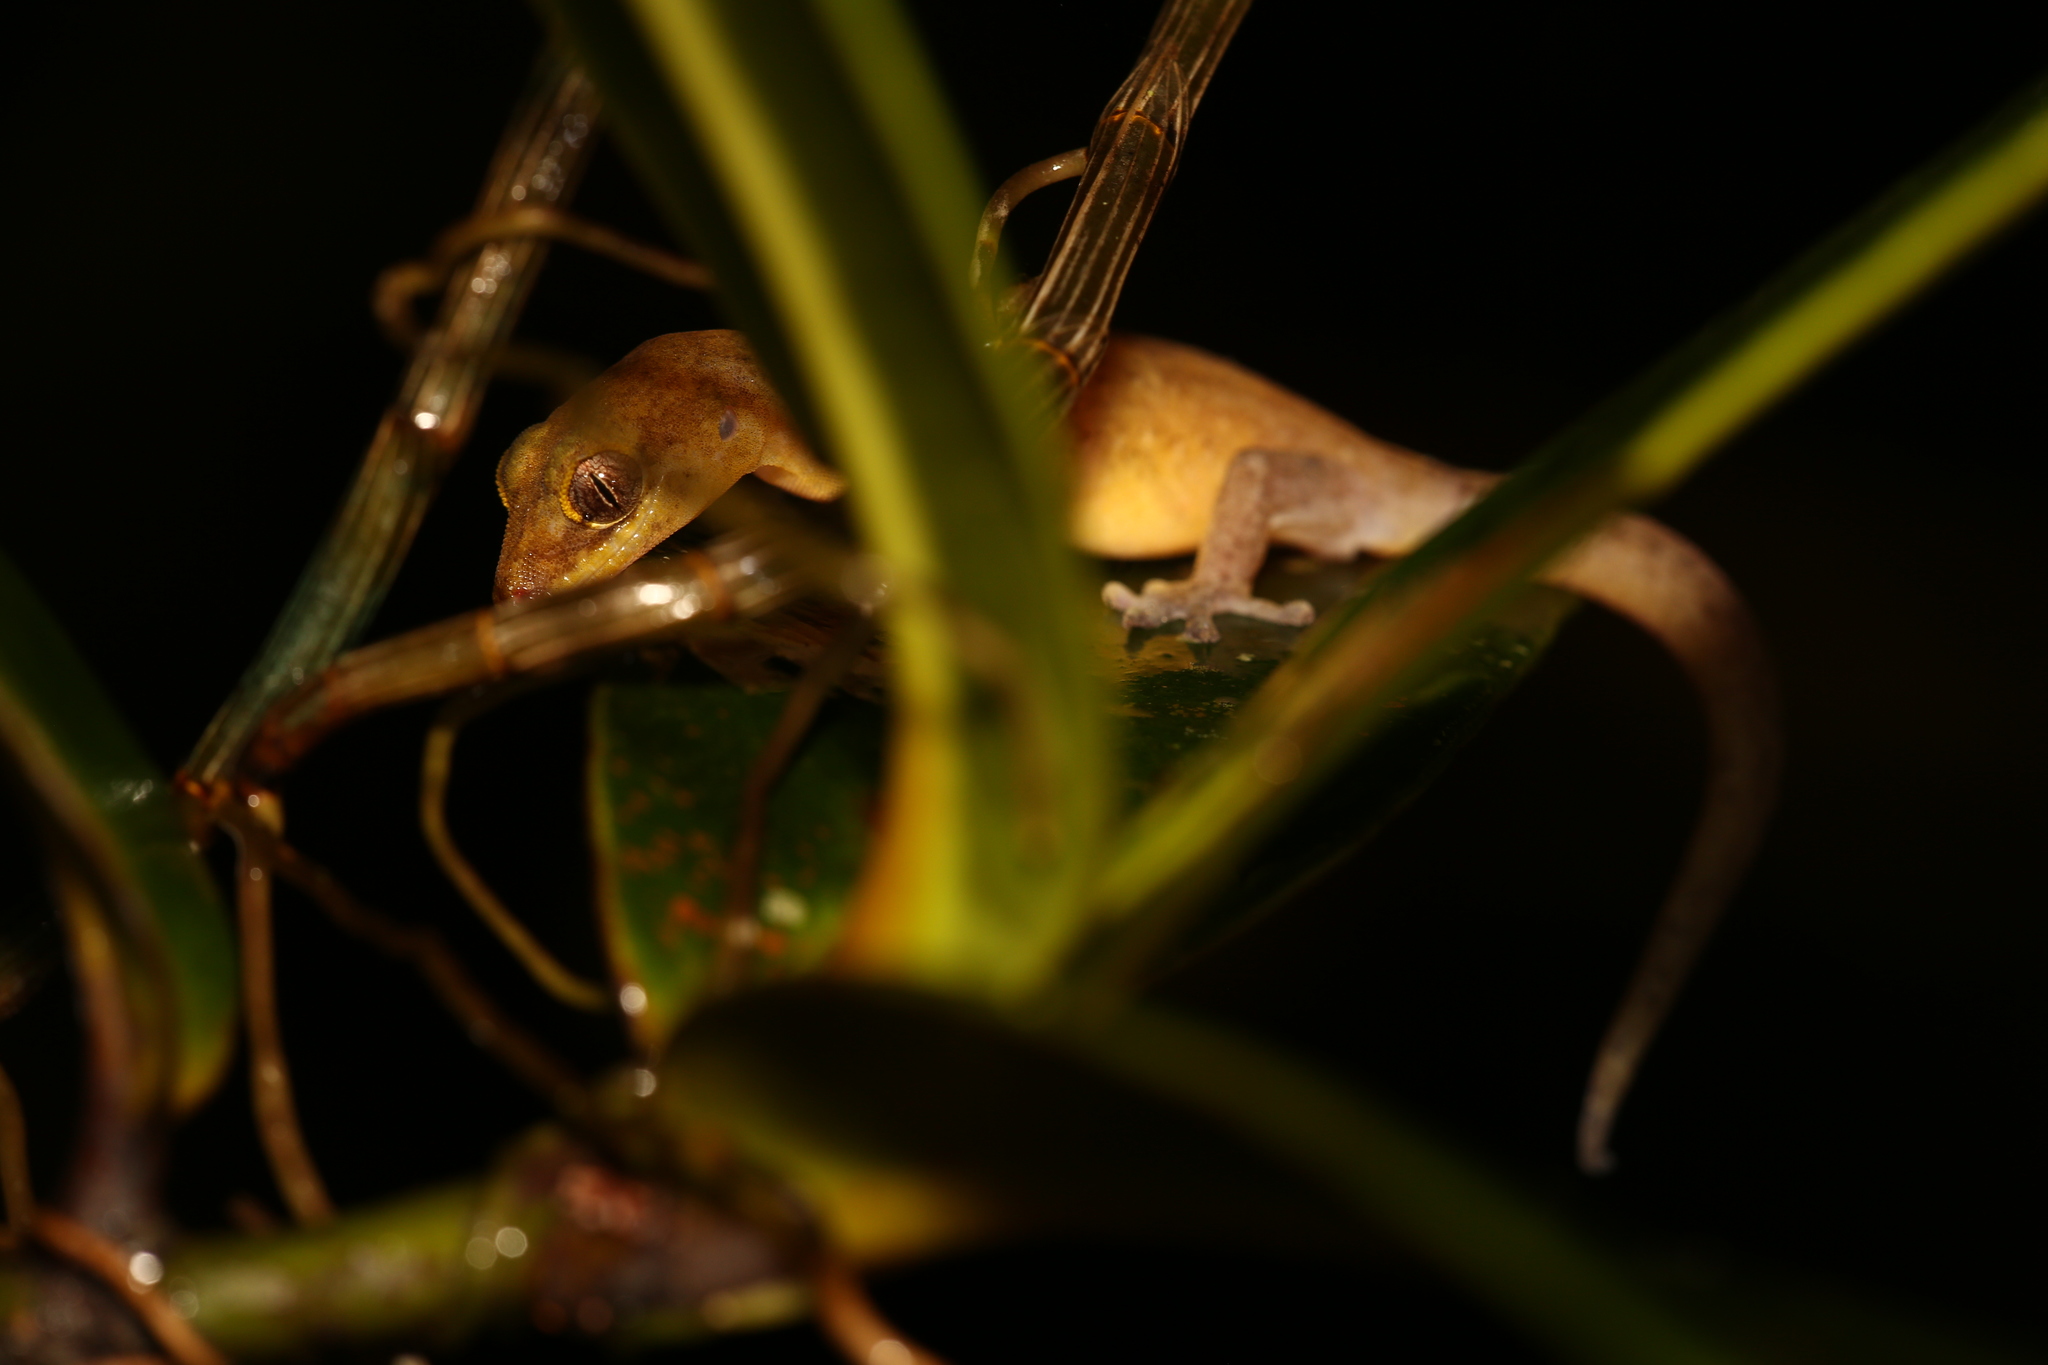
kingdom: Animalia
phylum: Chordata
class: Squamata
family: Diplodactylidae
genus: Bavayia
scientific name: Bavayia septuiclavis
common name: Pale-stripe bavayia
